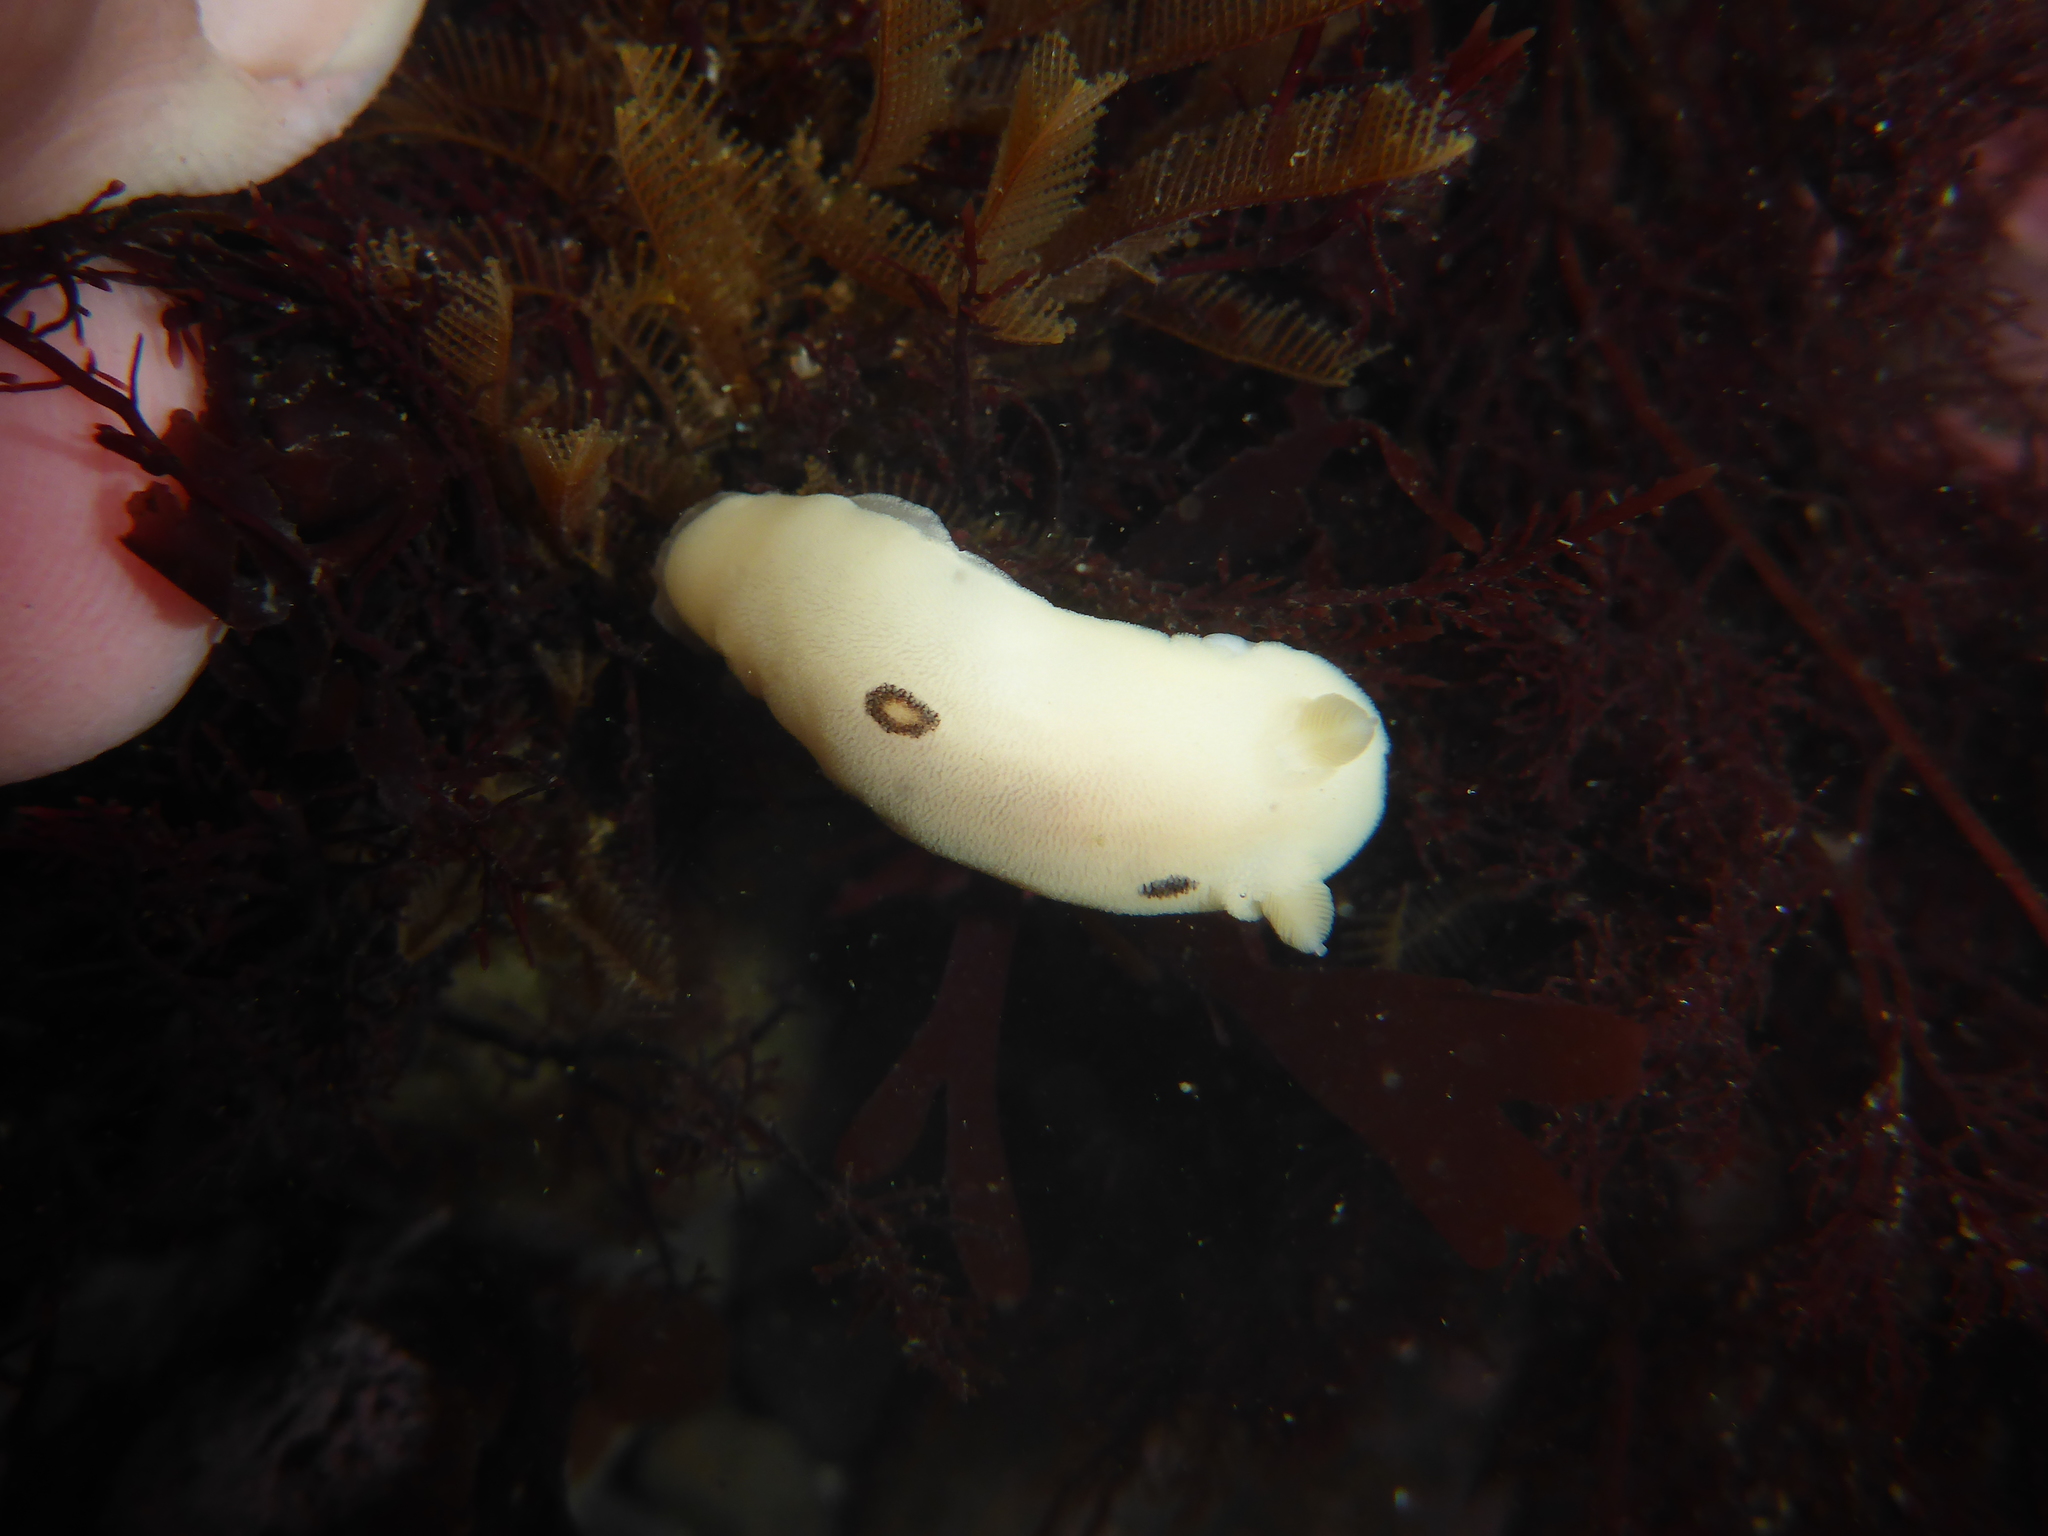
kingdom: Animalia
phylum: Mollusca
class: Gastropoda
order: Nudibranchia
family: Discodorididae
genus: Diaulula
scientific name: Diaulula sandiegensis
